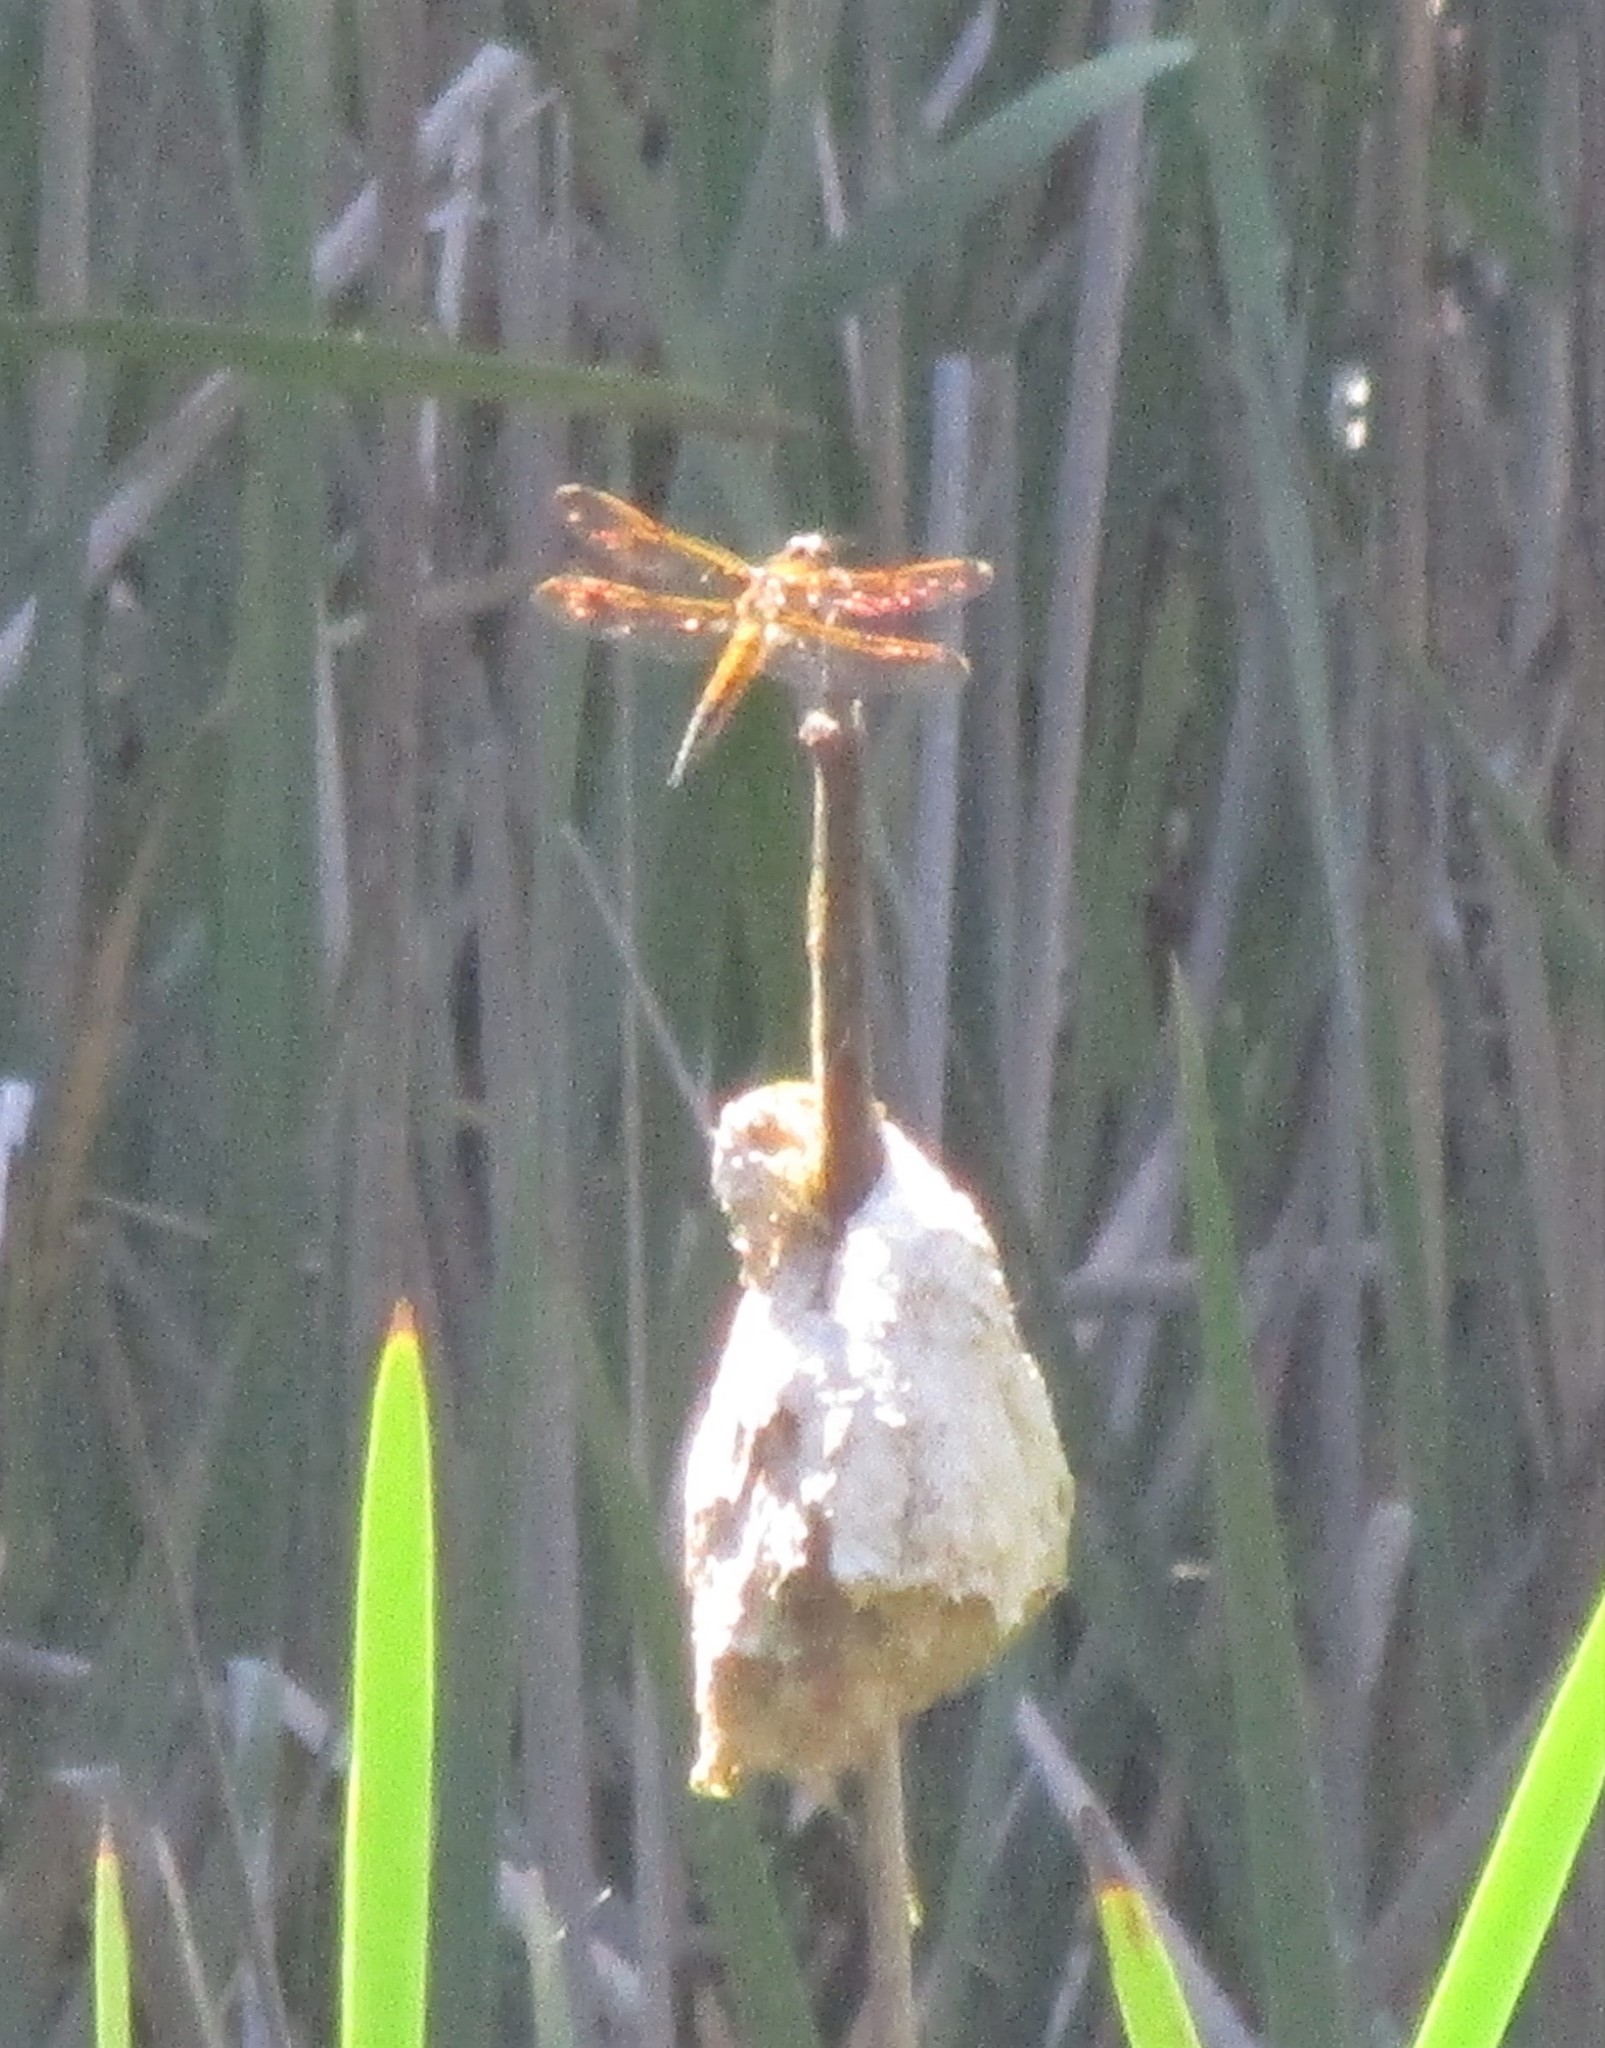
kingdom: Animalia
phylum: Arthropoda
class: Insecta
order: Odonata
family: Libellulidae
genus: Libellula
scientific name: Libellula quadrimaculata
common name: Four-spotted chaser
